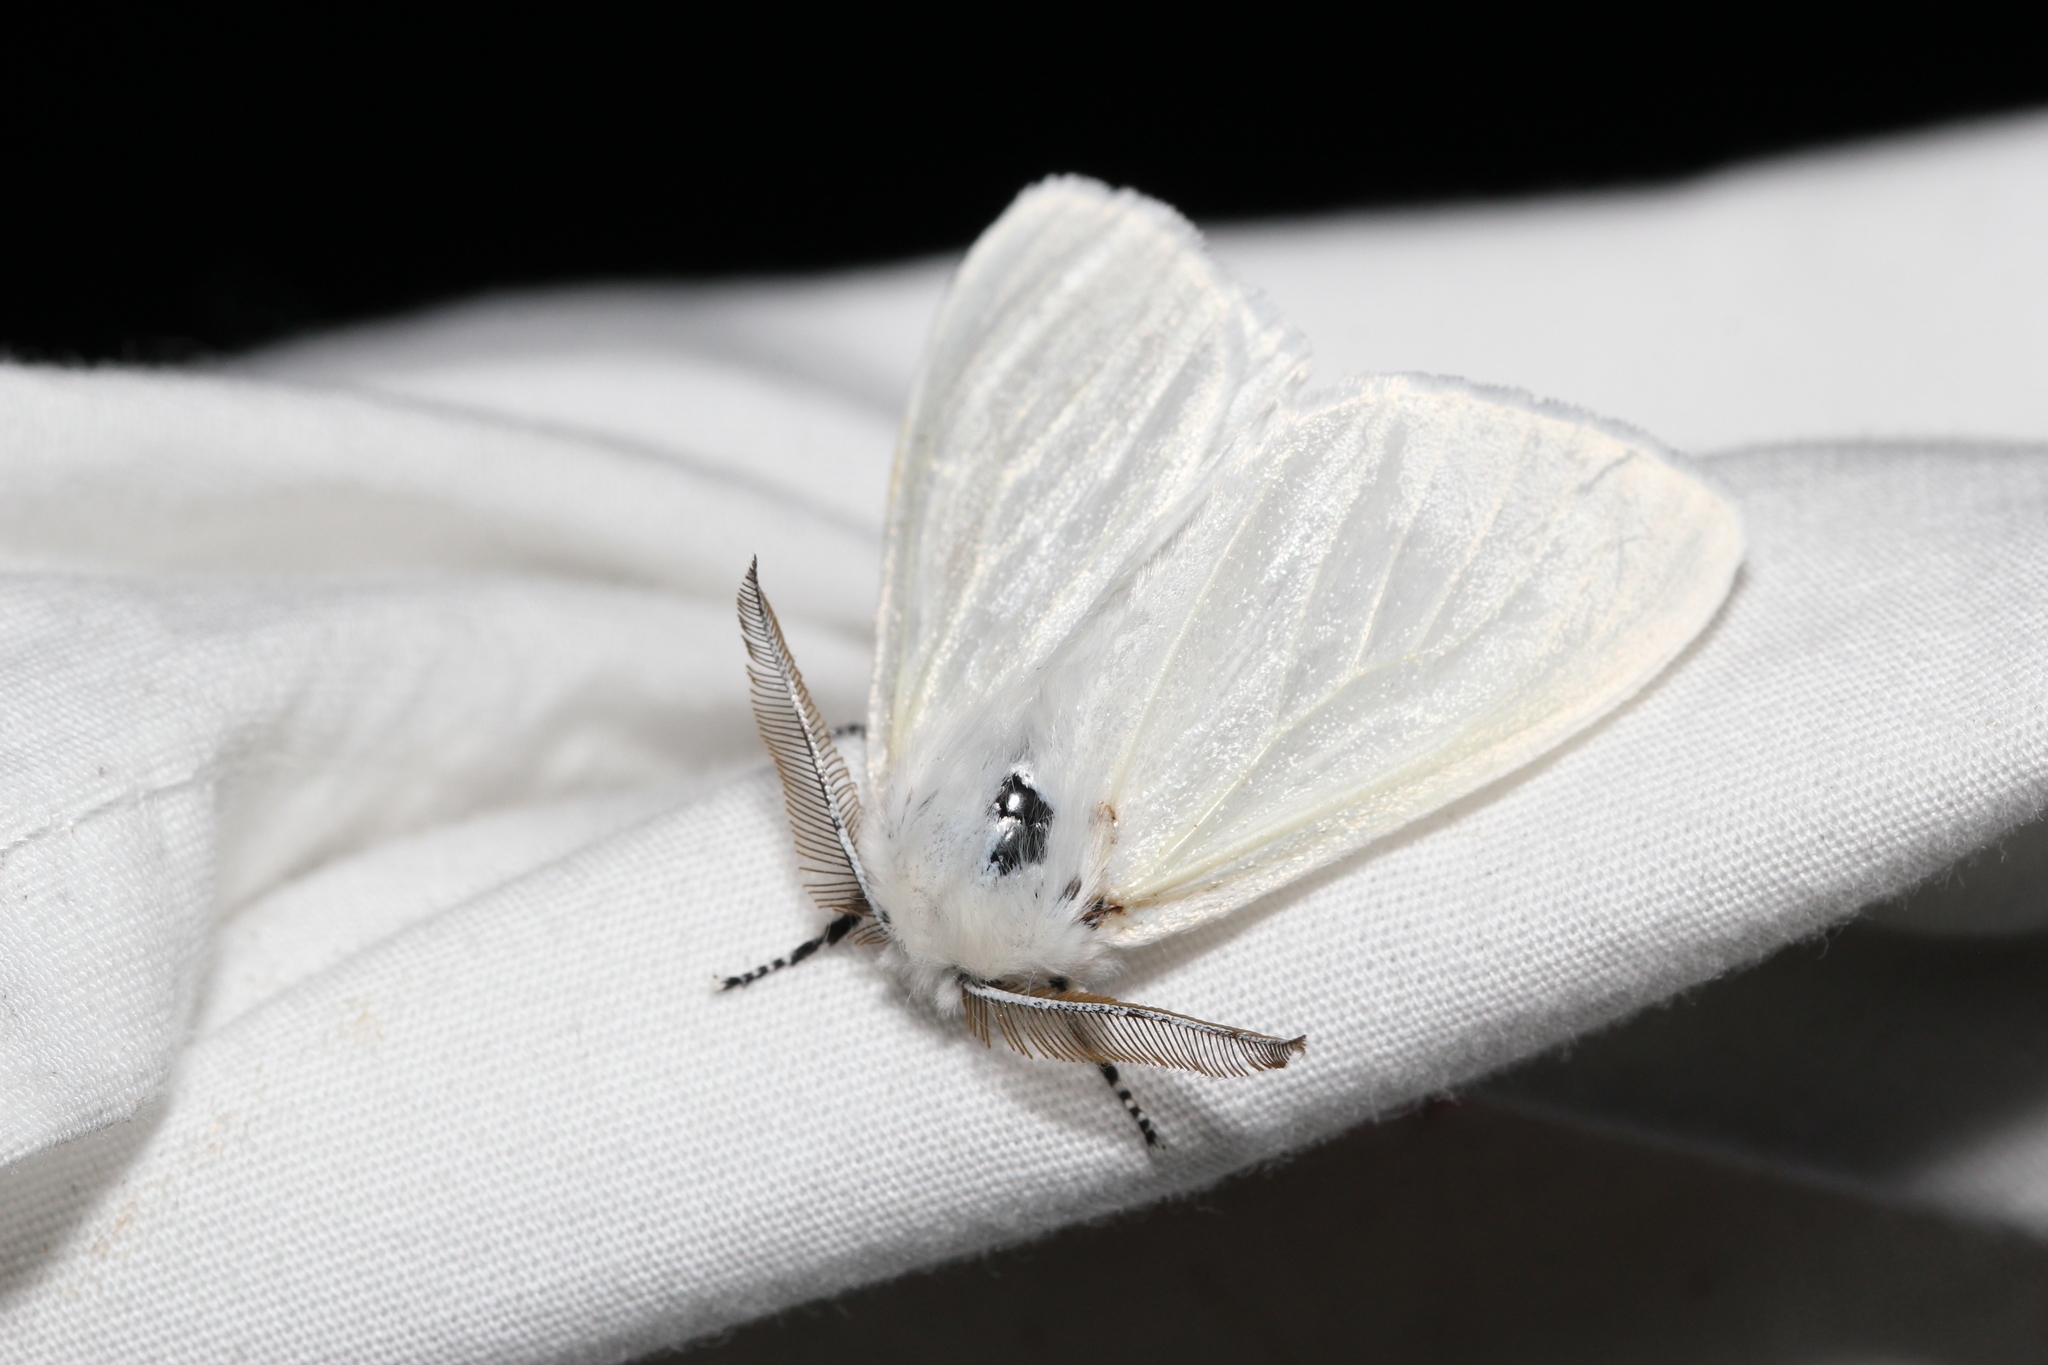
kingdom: Animalia
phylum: Arthropoda
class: Insecta
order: Lepidoptera
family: Erebidae
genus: Leucoma
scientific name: Leucoma salicis
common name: White satin moth
